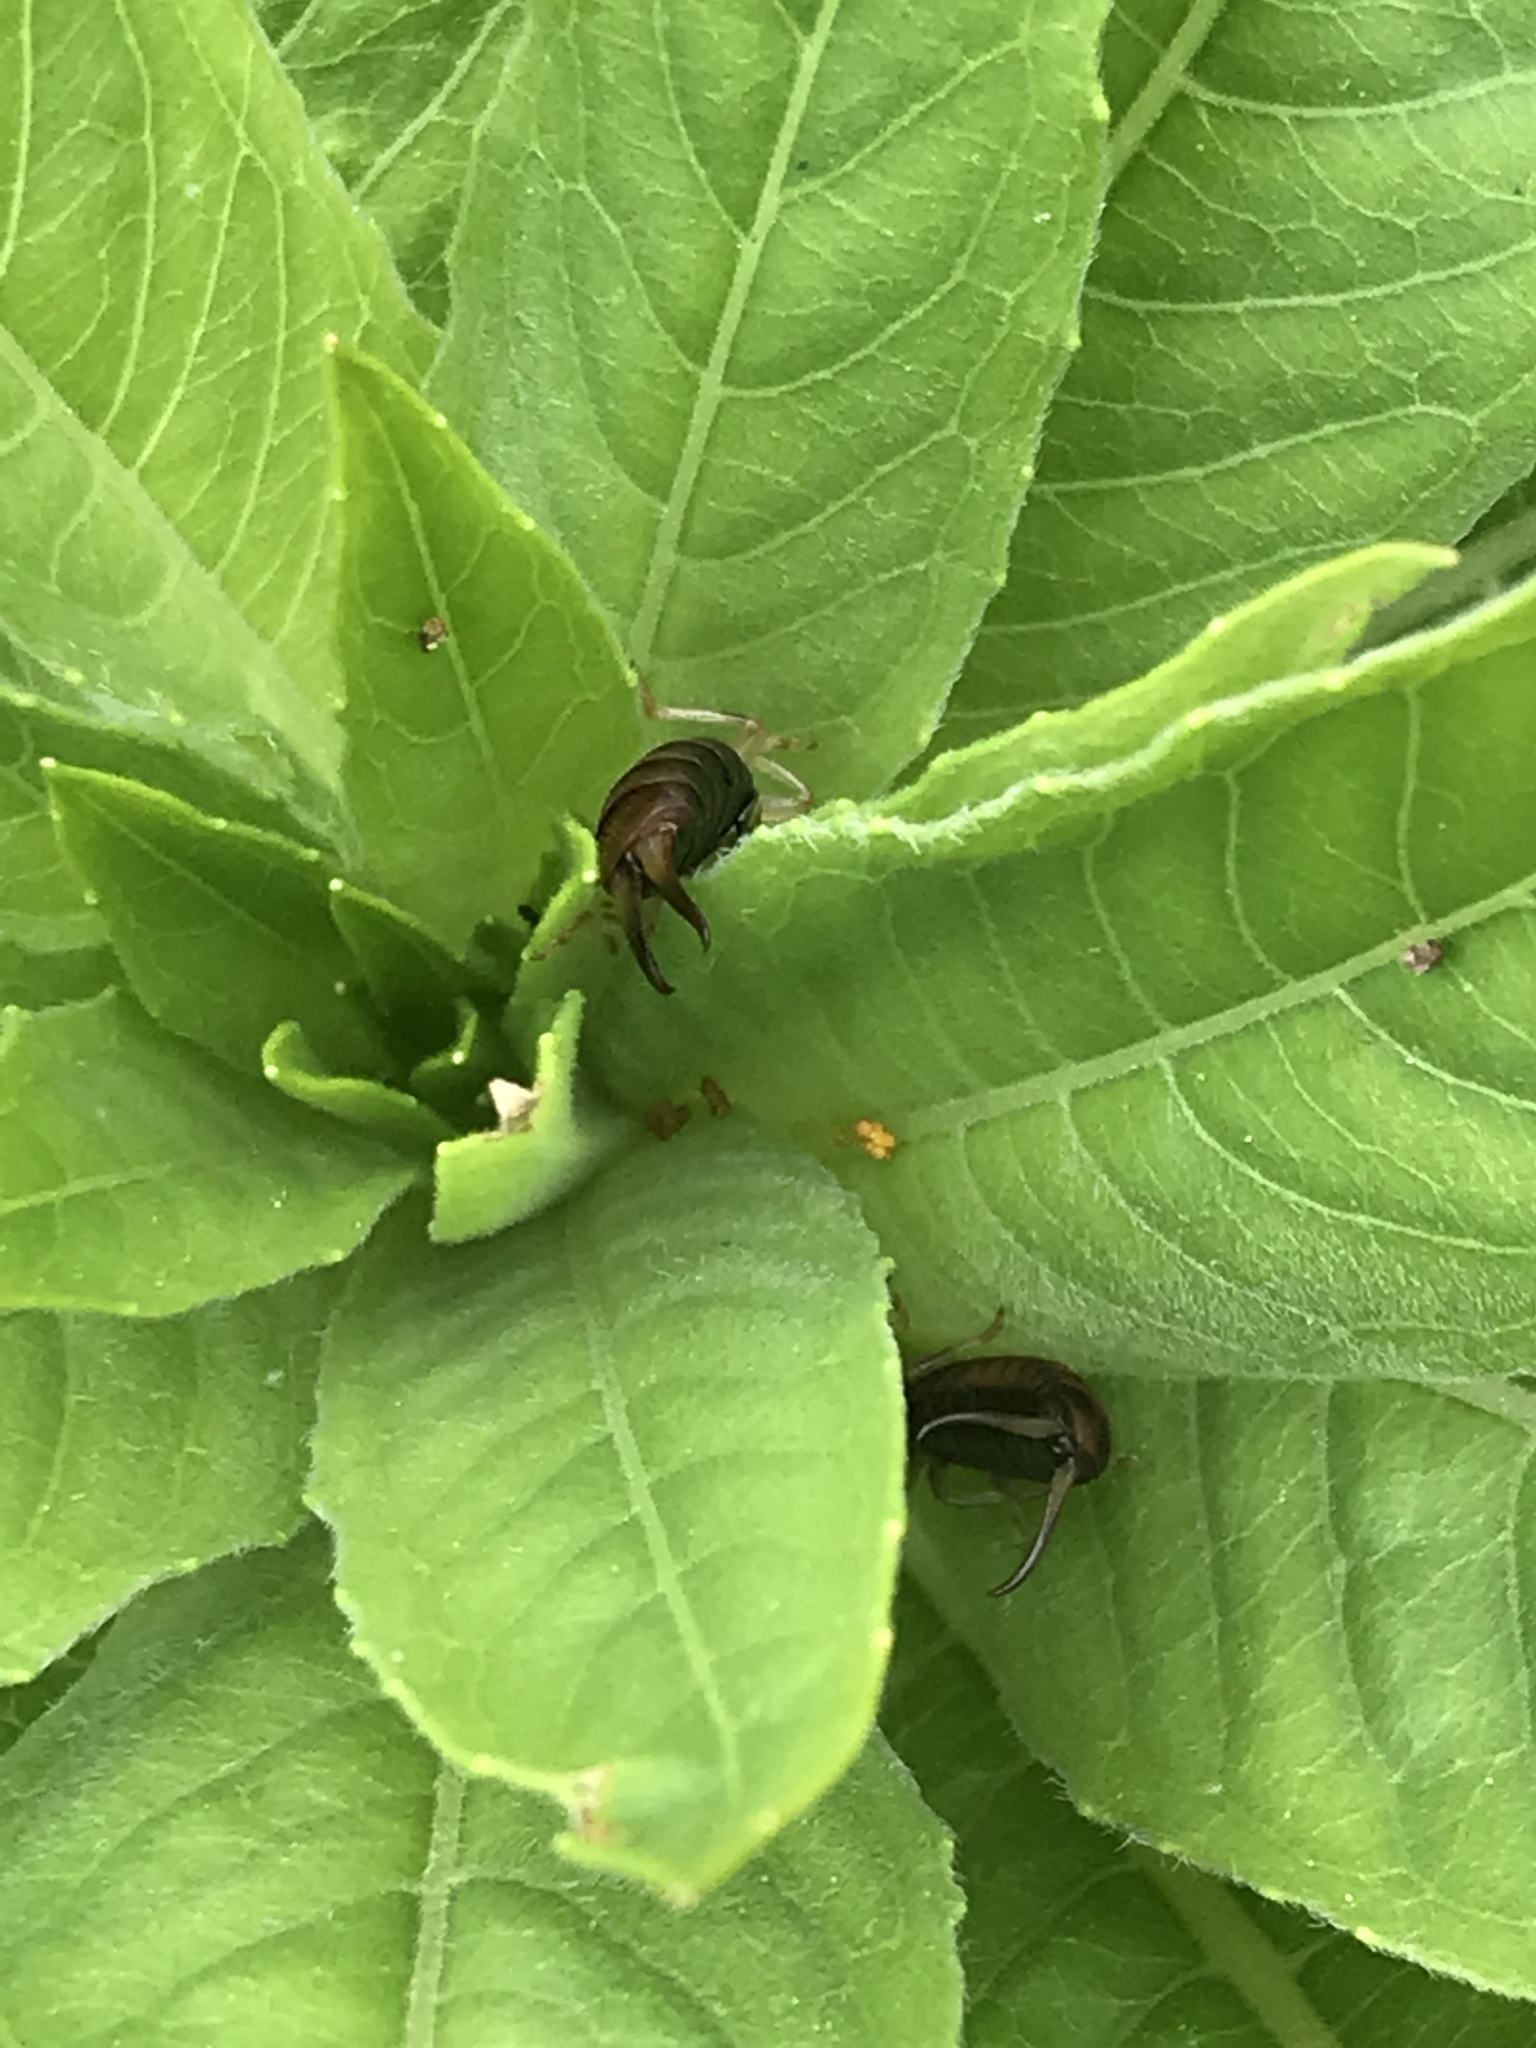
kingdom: Animalia
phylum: Arthropoda
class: Insecta
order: Dermaptera
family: Forficulidae
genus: Forficula
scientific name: Forficula
